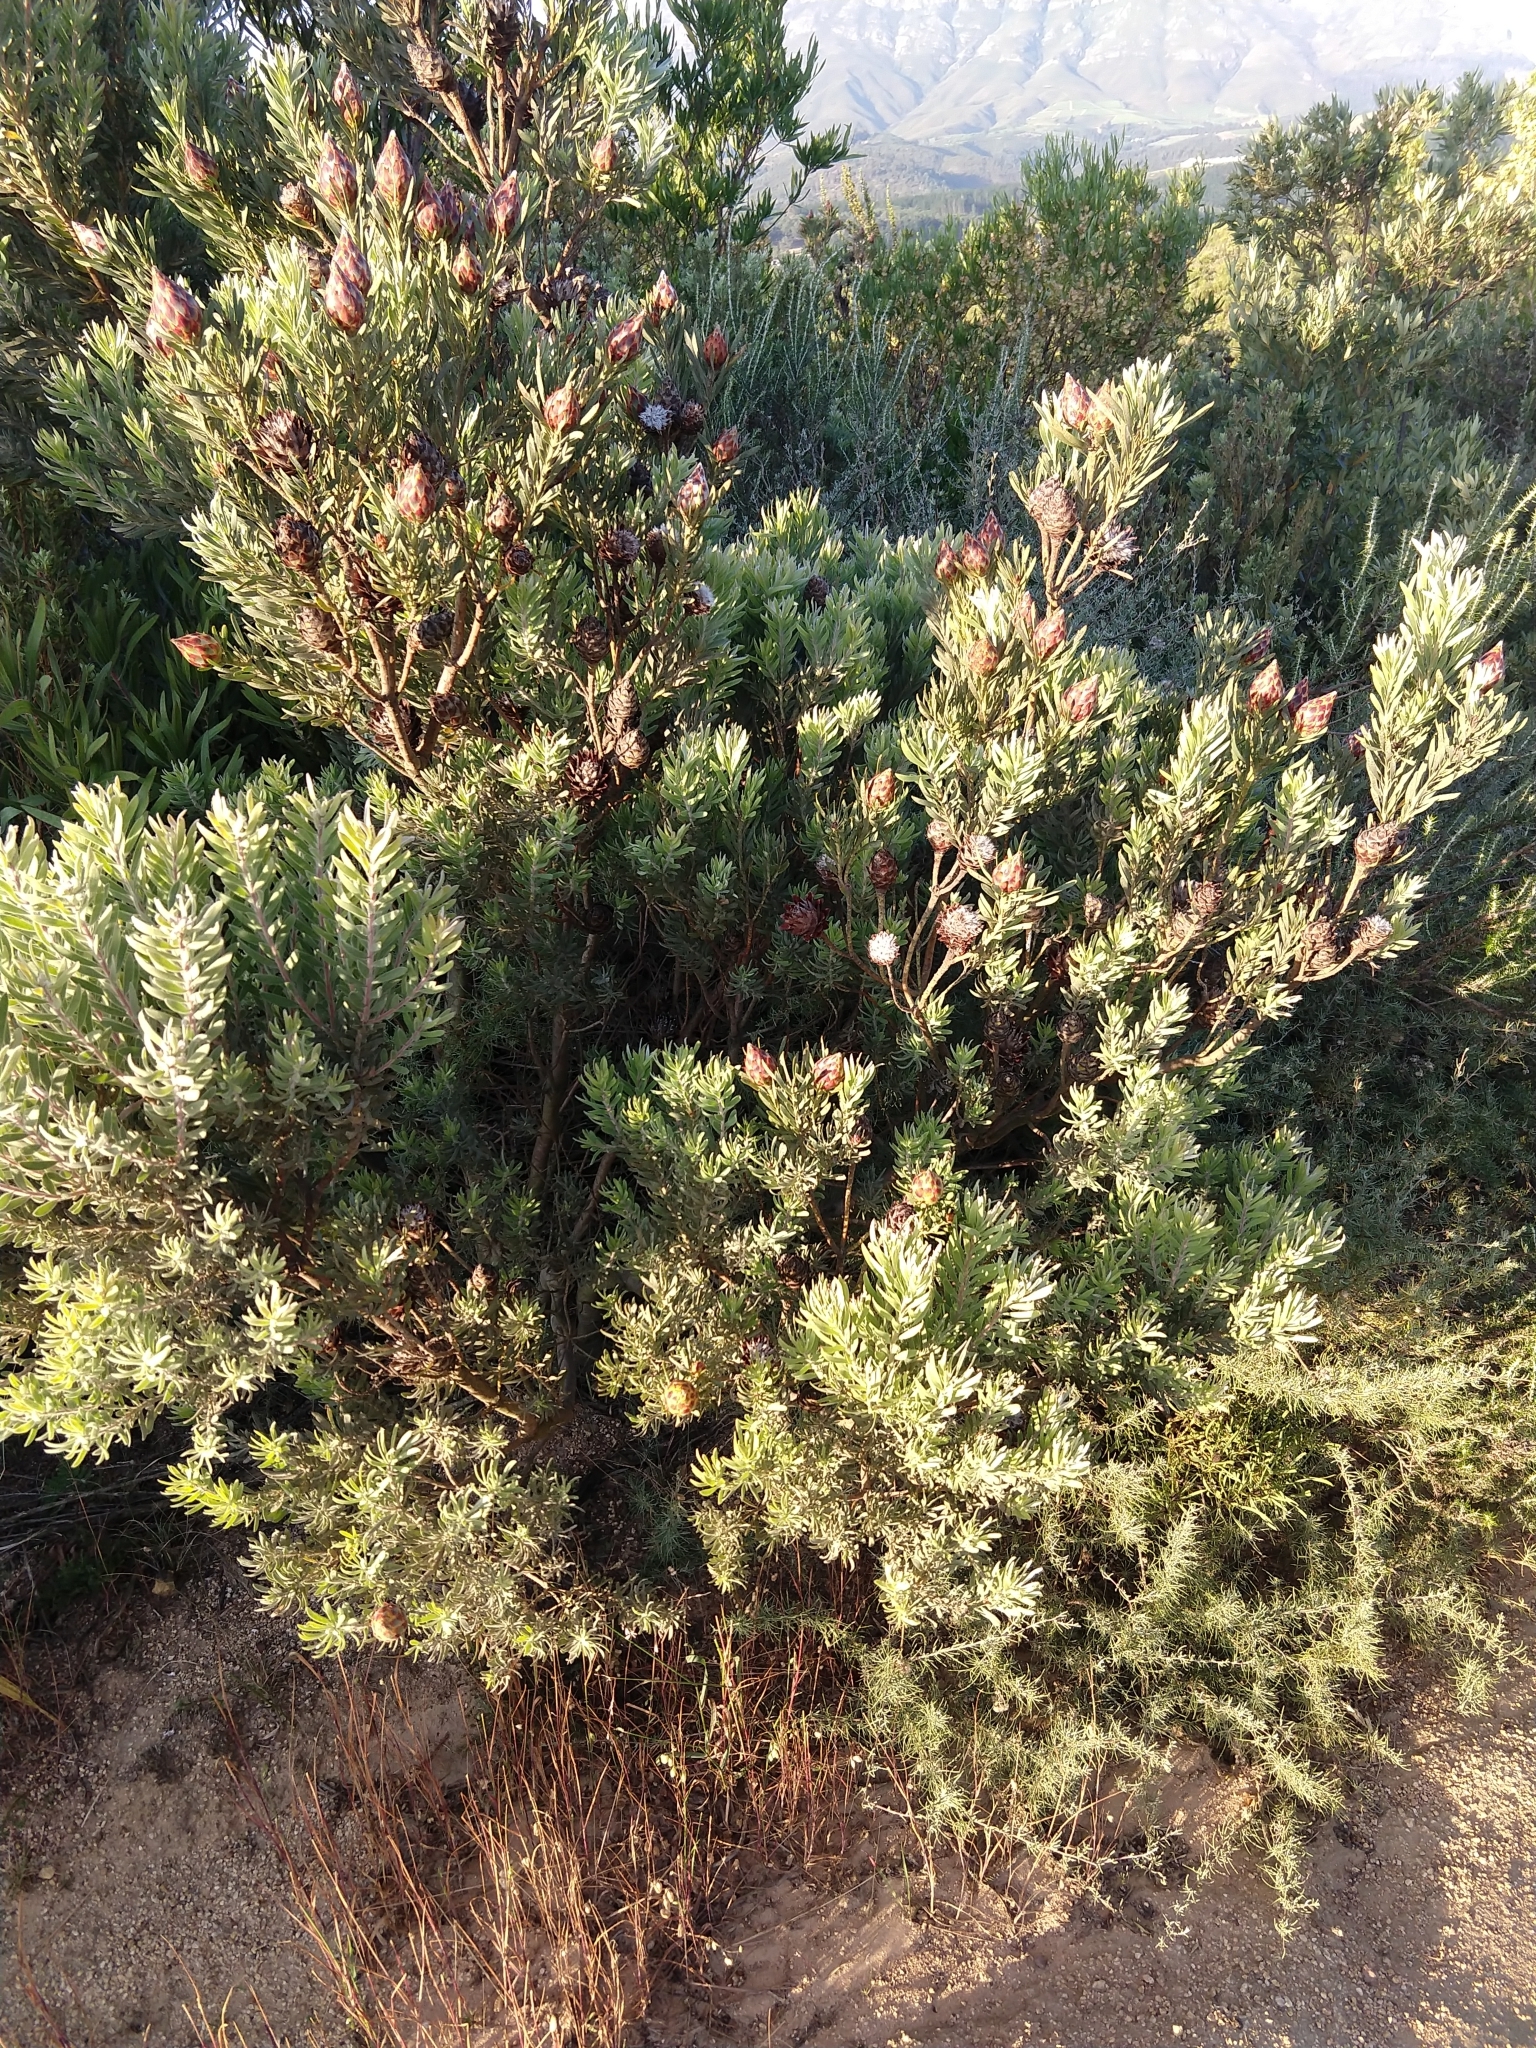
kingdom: Plantae
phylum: Tracheophyta
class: Magnoliopsida
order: Proteales
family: Proteaceae
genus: Leucadendron
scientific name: Leucadendron rubrum
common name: Spinning top
